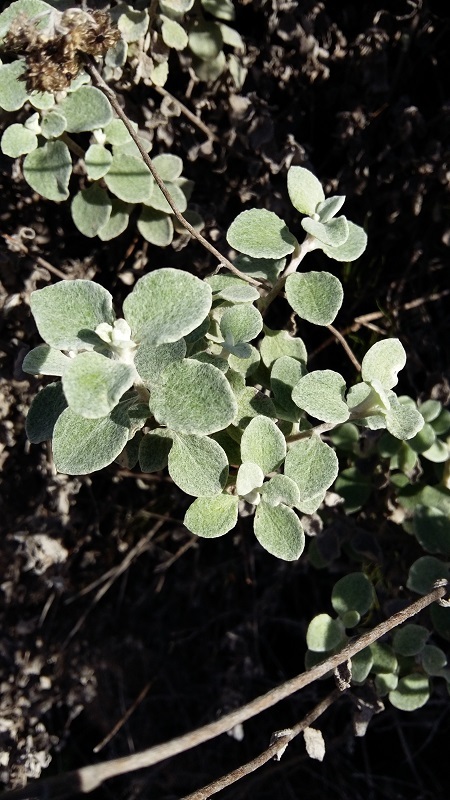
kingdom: Plantae
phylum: Tracheophyta
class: Magnoliopsida
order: Asterales
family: Asteraceae
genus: Helichrysum
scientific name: Helichrysum petiolare
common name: Licorice-plant
